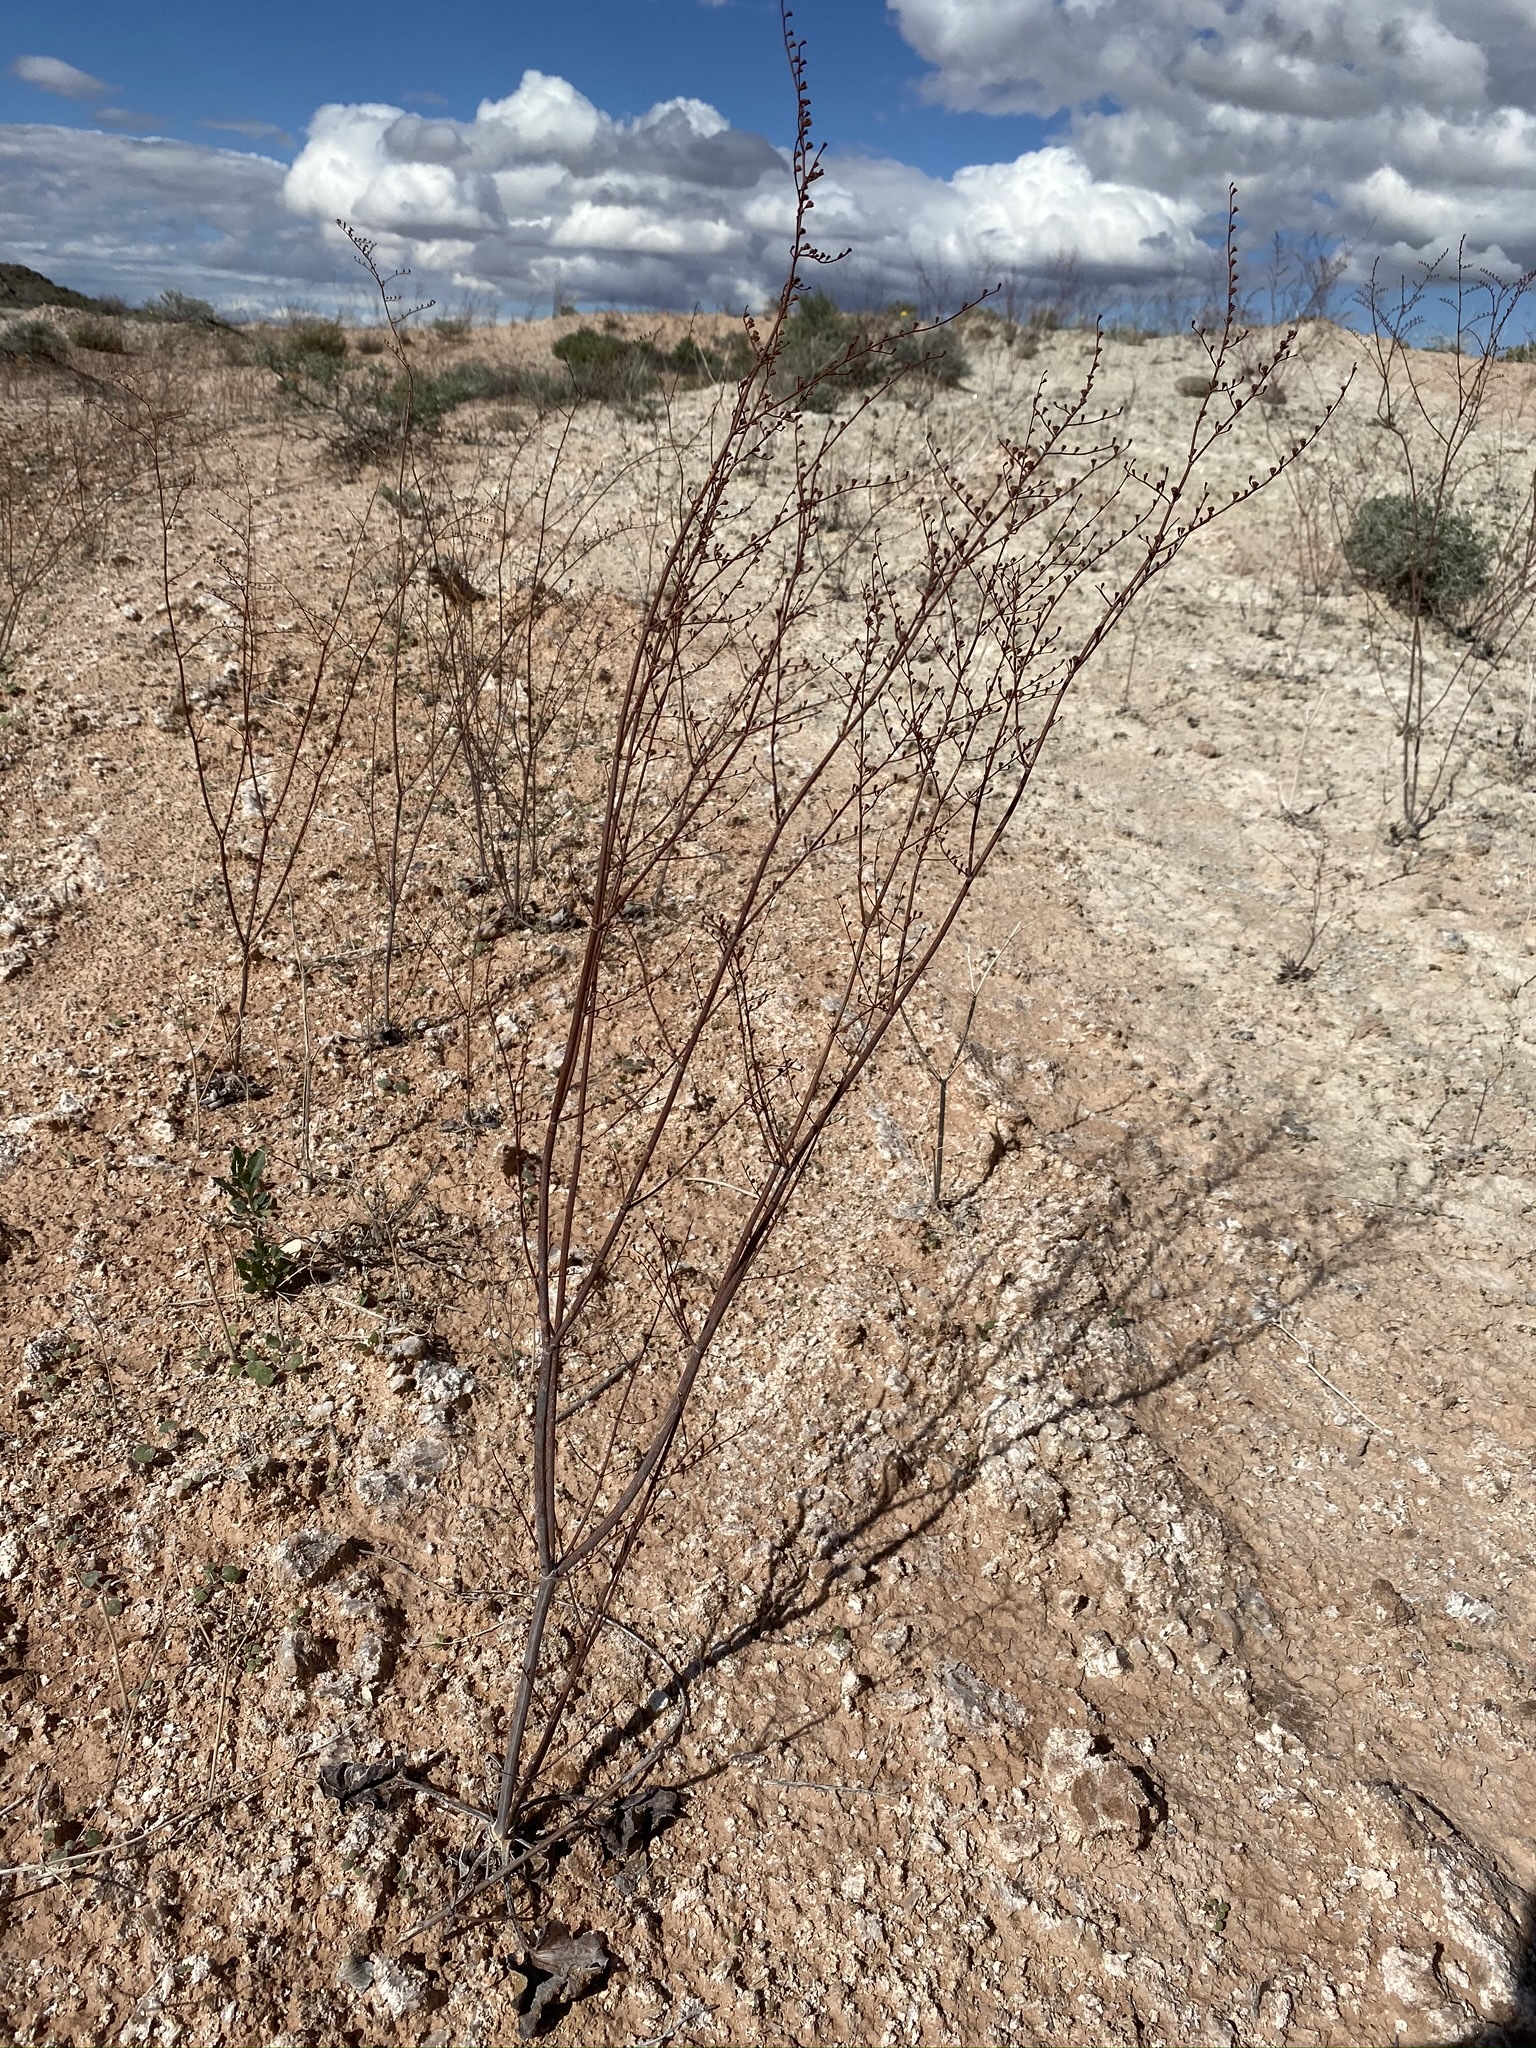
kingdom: Plantae
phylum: Tracheophyta
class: Magnoliopsida
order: Caryophyllales
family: Polygonaceae
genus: Eriogonum
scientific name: Eriogonum exaltatum
